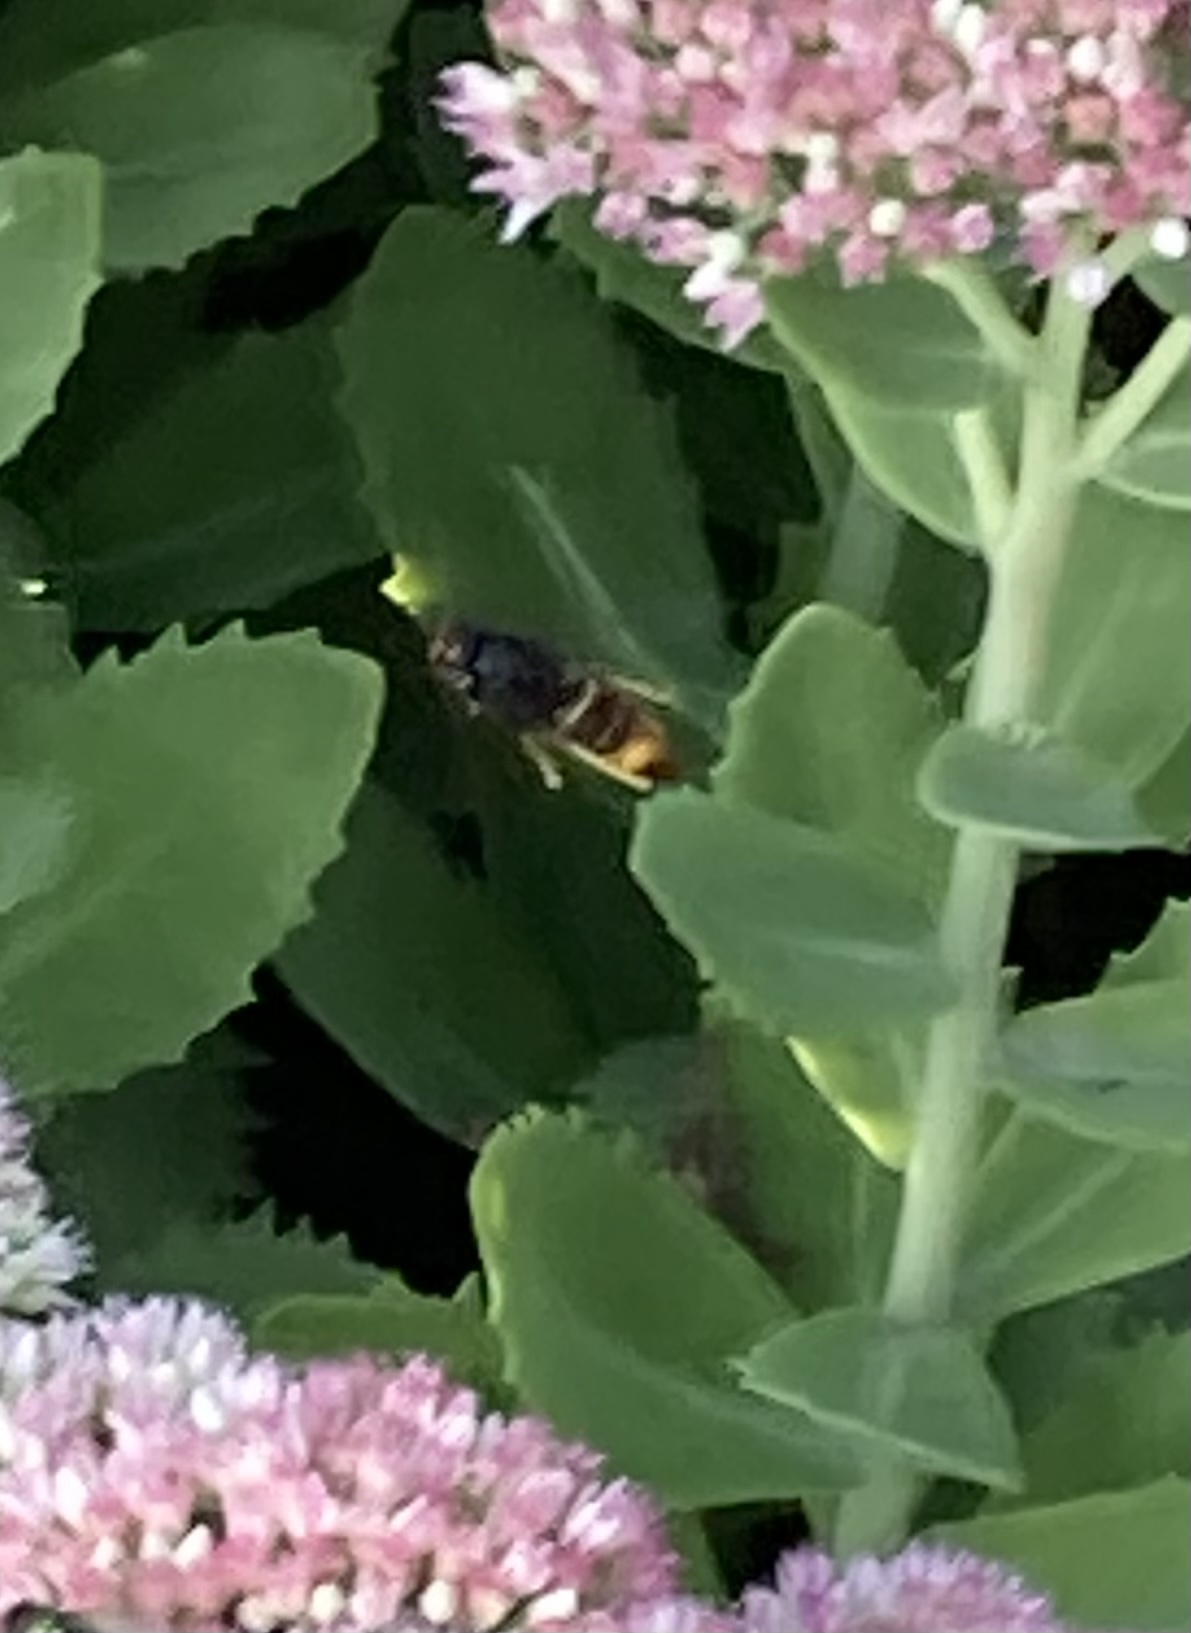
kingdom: Animalia
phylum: Arthropoda
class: Insecta
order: Hymenoptera
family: Vespidae
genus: Vespa
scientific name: Vespa velutina
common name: Asian hornet
